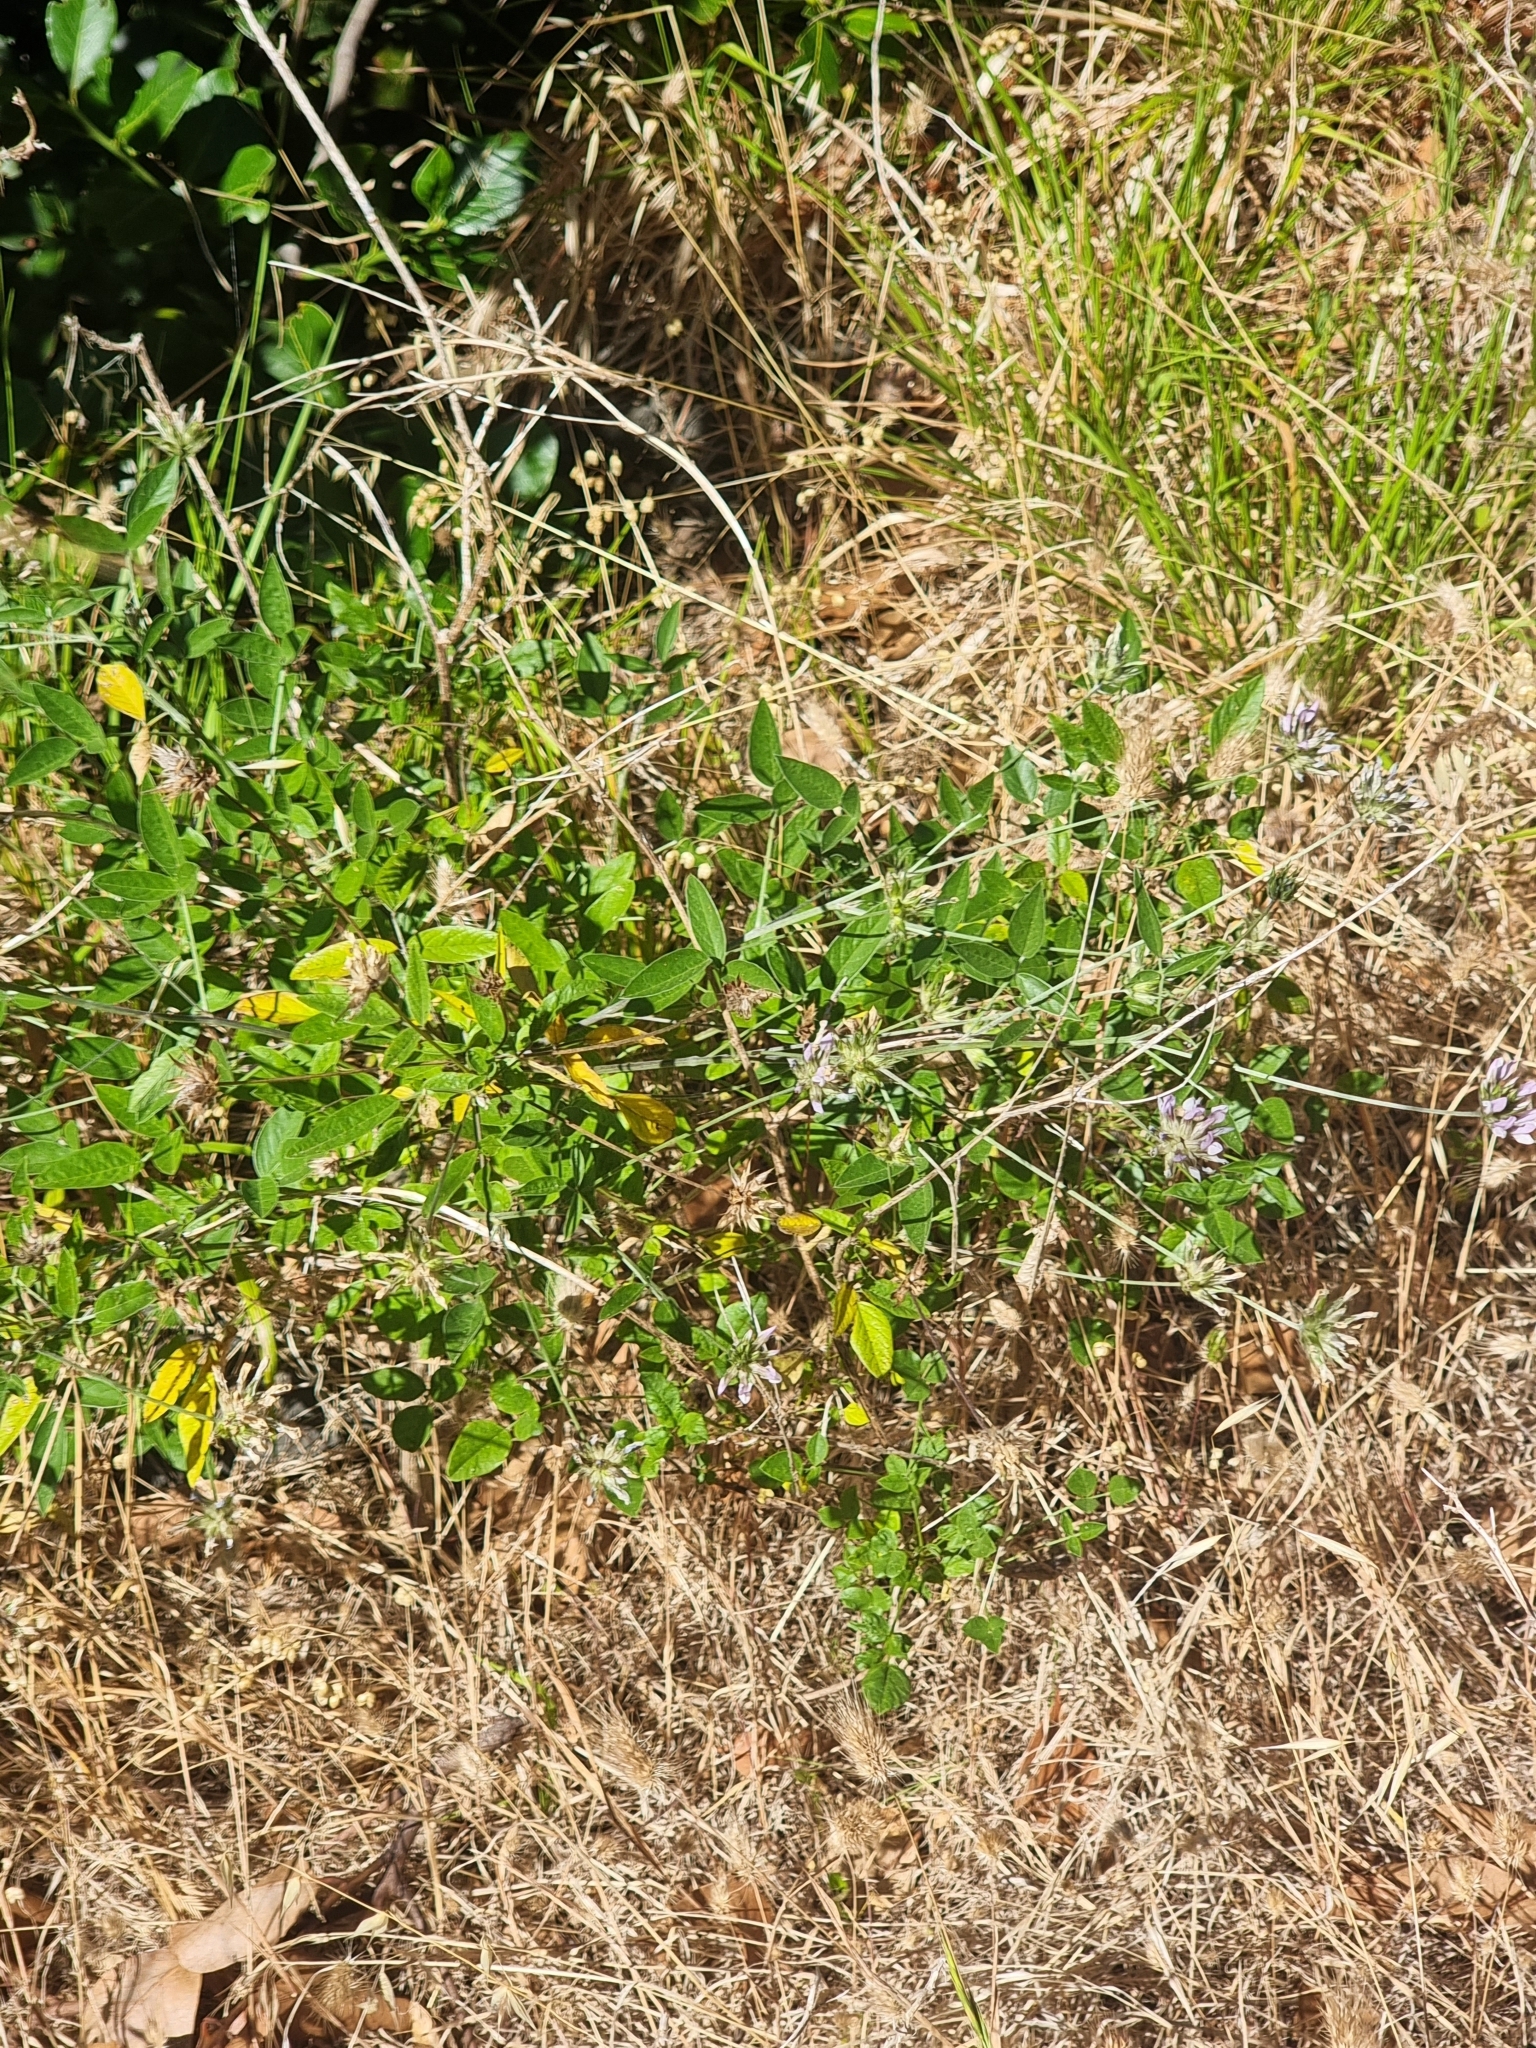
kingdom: Plantae
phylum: Tracheophyta
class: Magnoliopsida
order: Fabales
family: Fabaceae
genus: Bituminaria
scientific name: Bituminaria bituminosa
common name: Arabian pea
